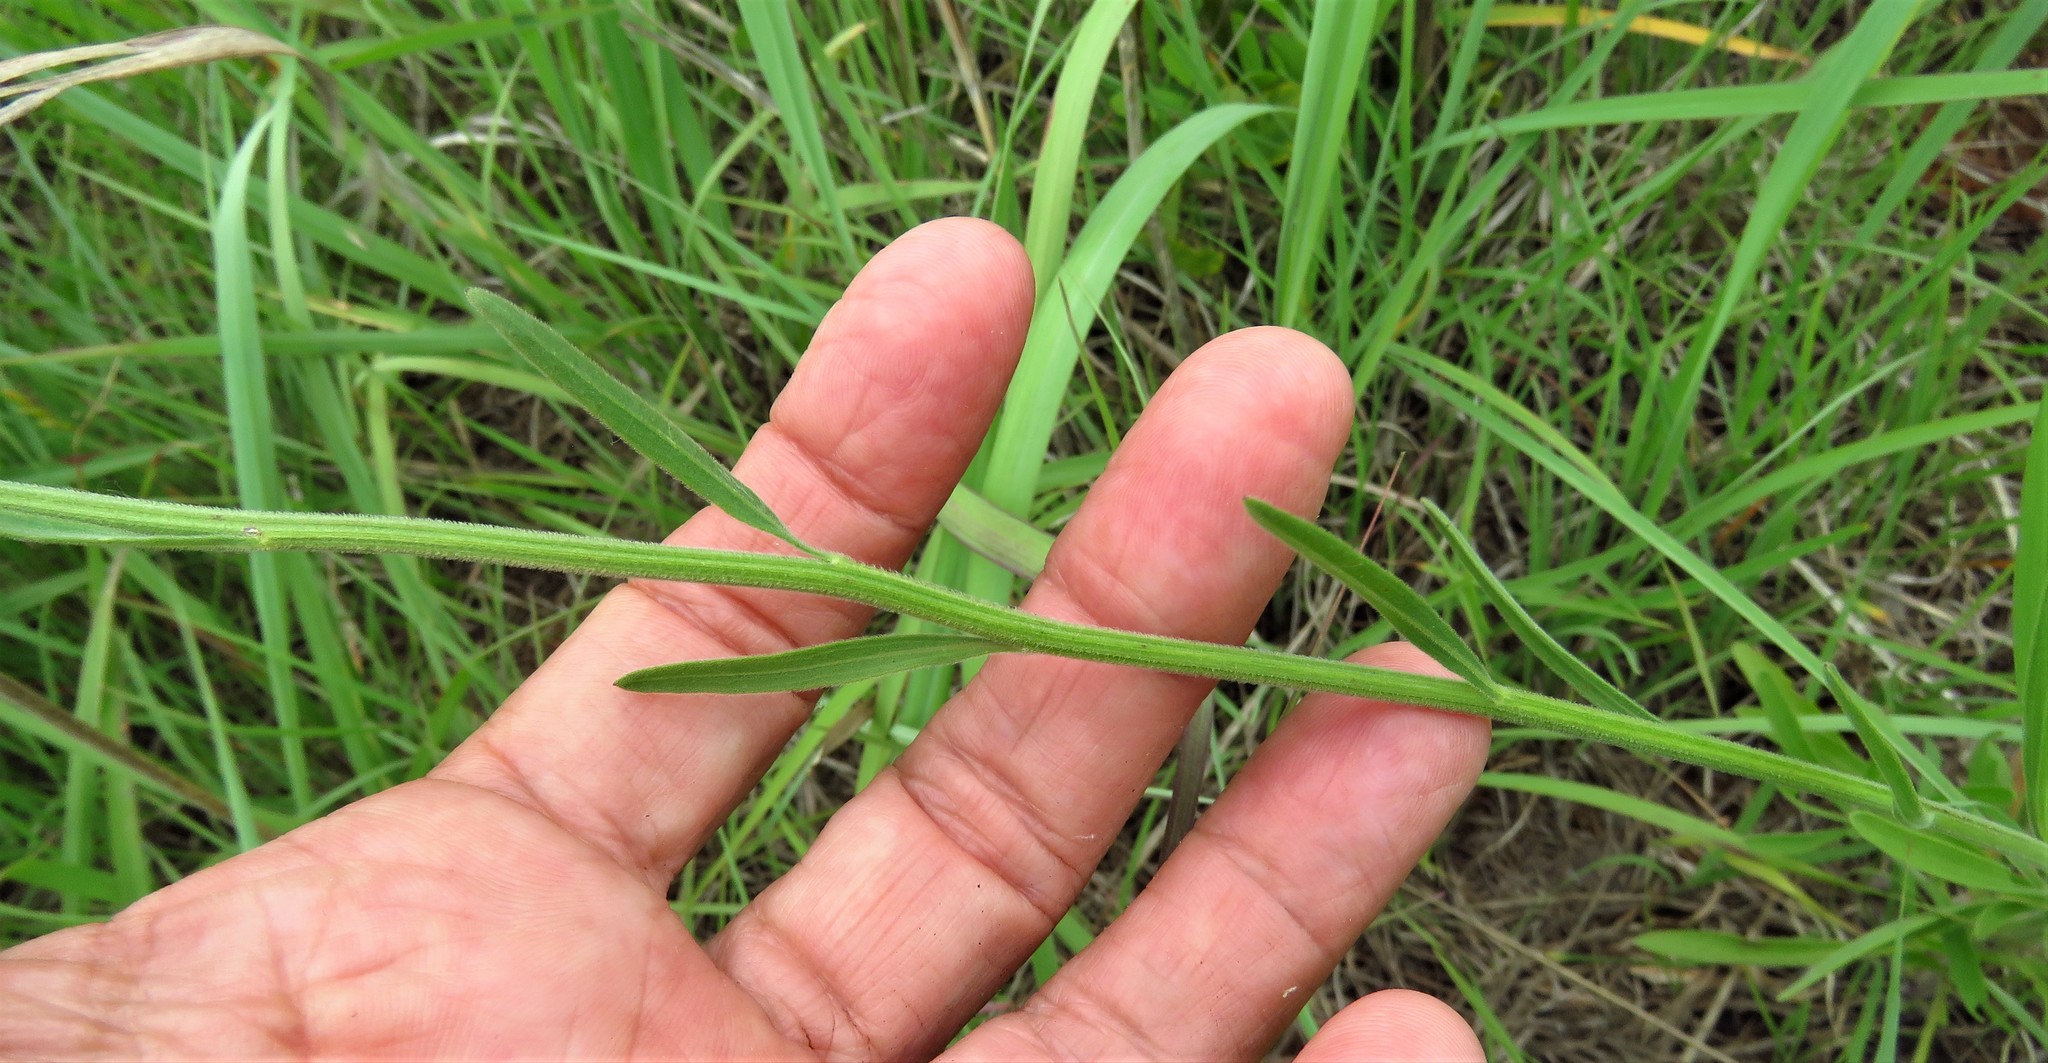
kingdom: Plantae
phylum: Tracheophyta
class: Magnoliopsida
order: Asterales
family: Asteraceae
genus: Erigeron
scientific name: Erigeron strigosus
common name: Common eastern fleabane
